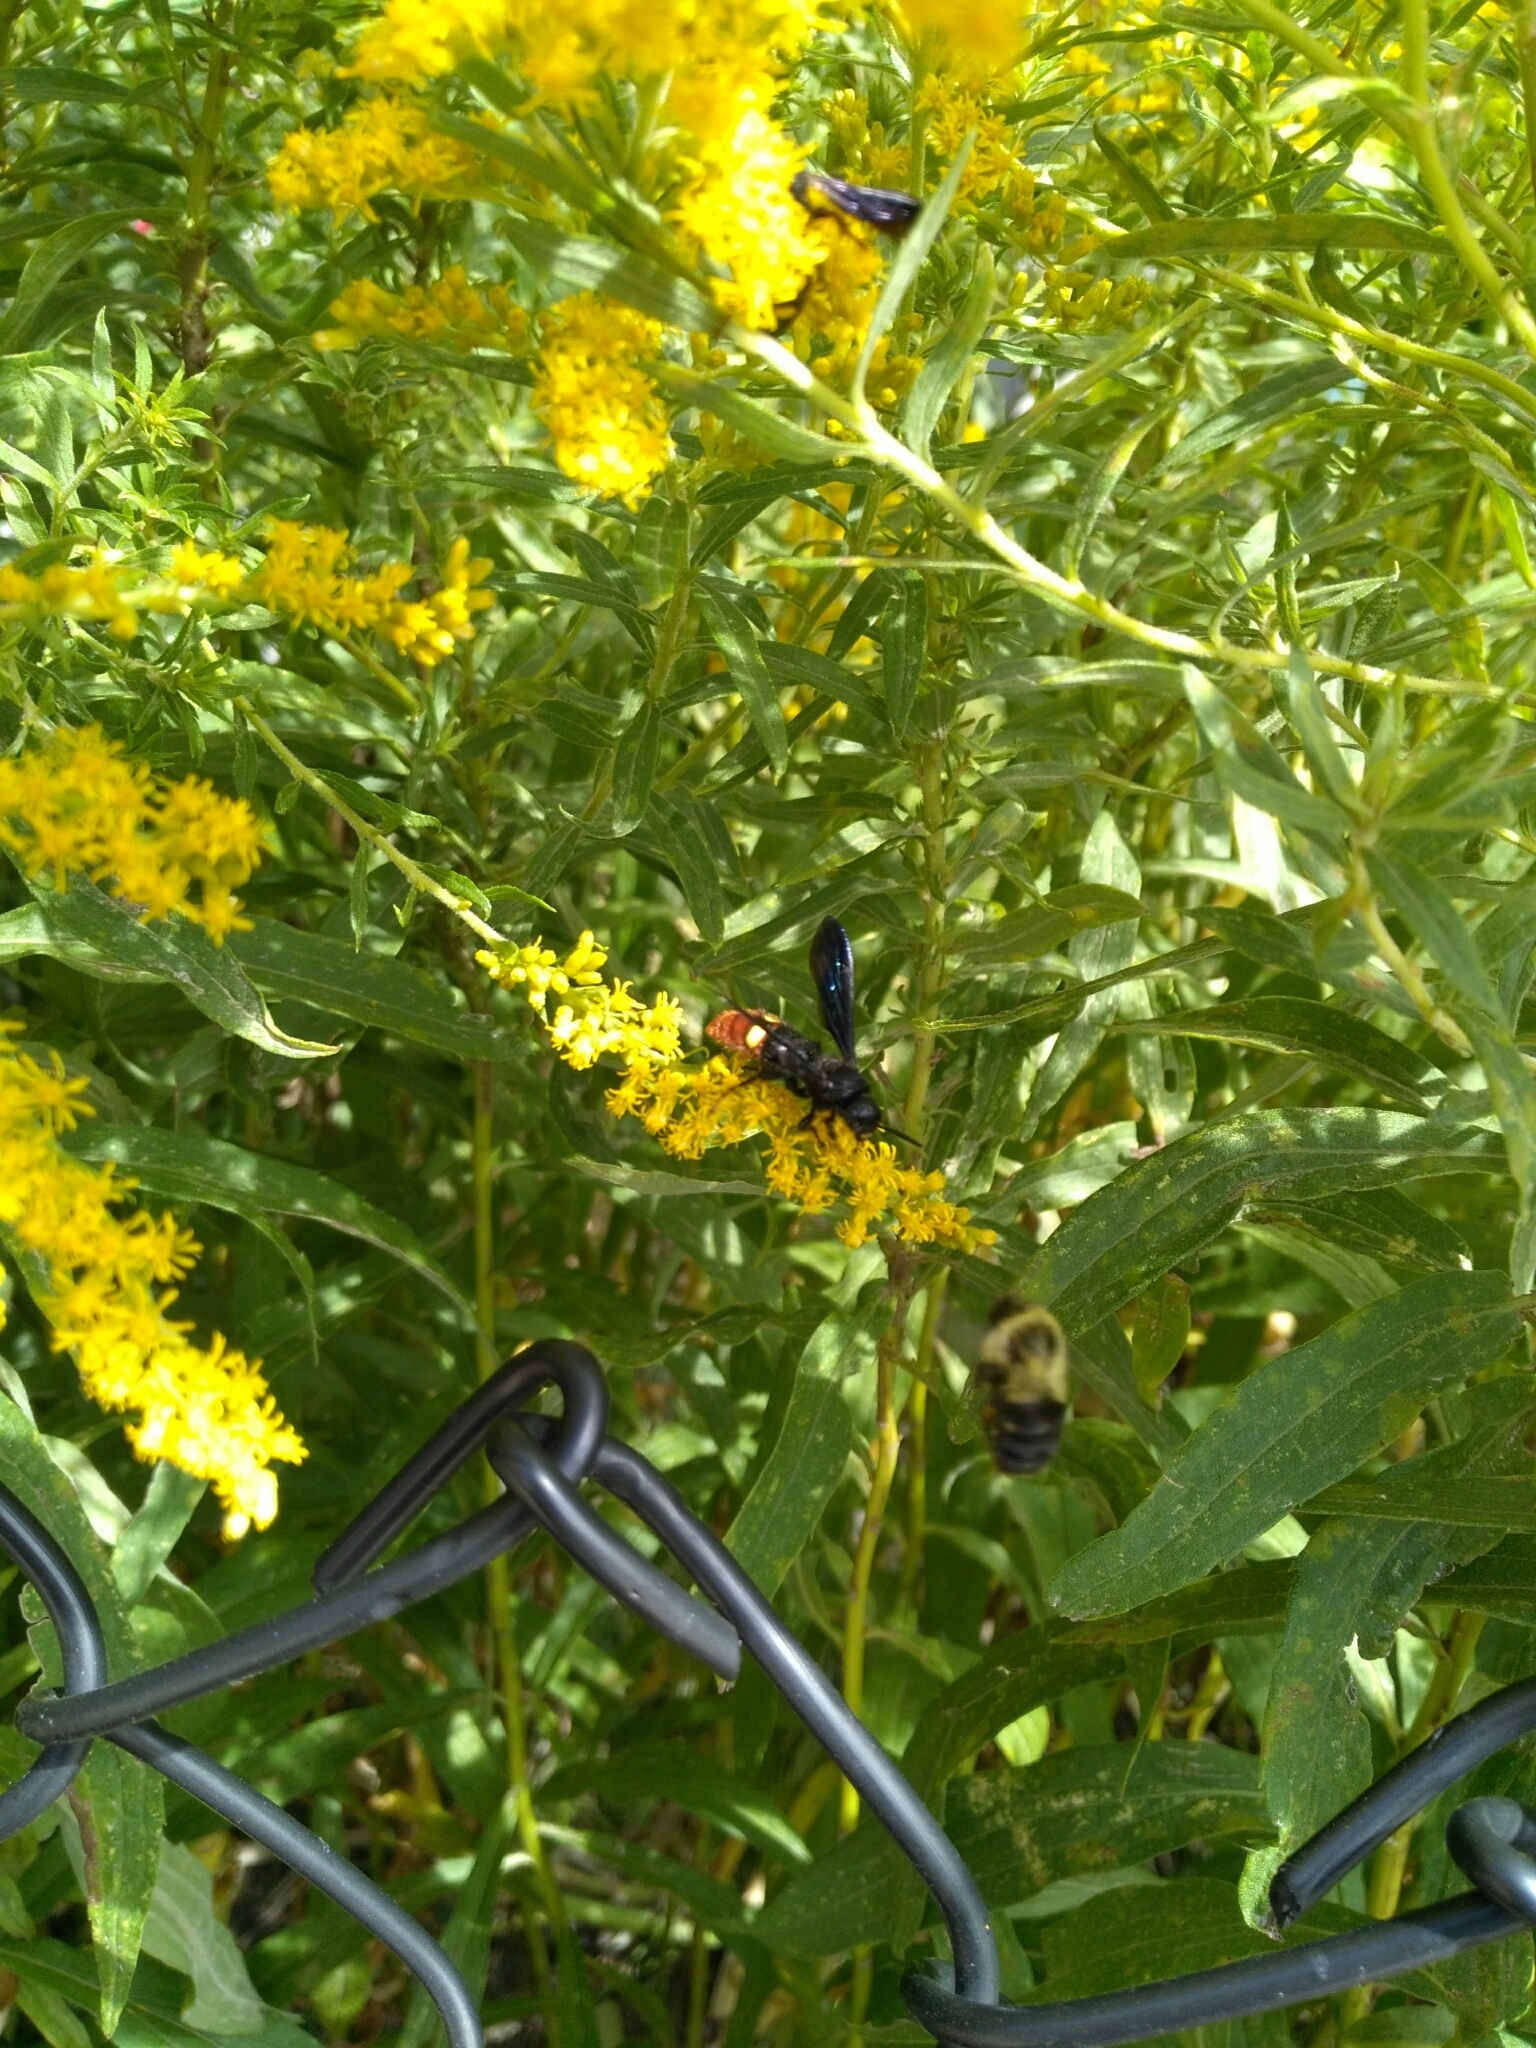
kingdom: Animalia
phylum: Arthropoda
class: Insecta
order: Hymenoptera
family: Scoliidae
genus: Scolia
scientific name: Scolia dubia
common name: Blue-winged scoliid wasp
